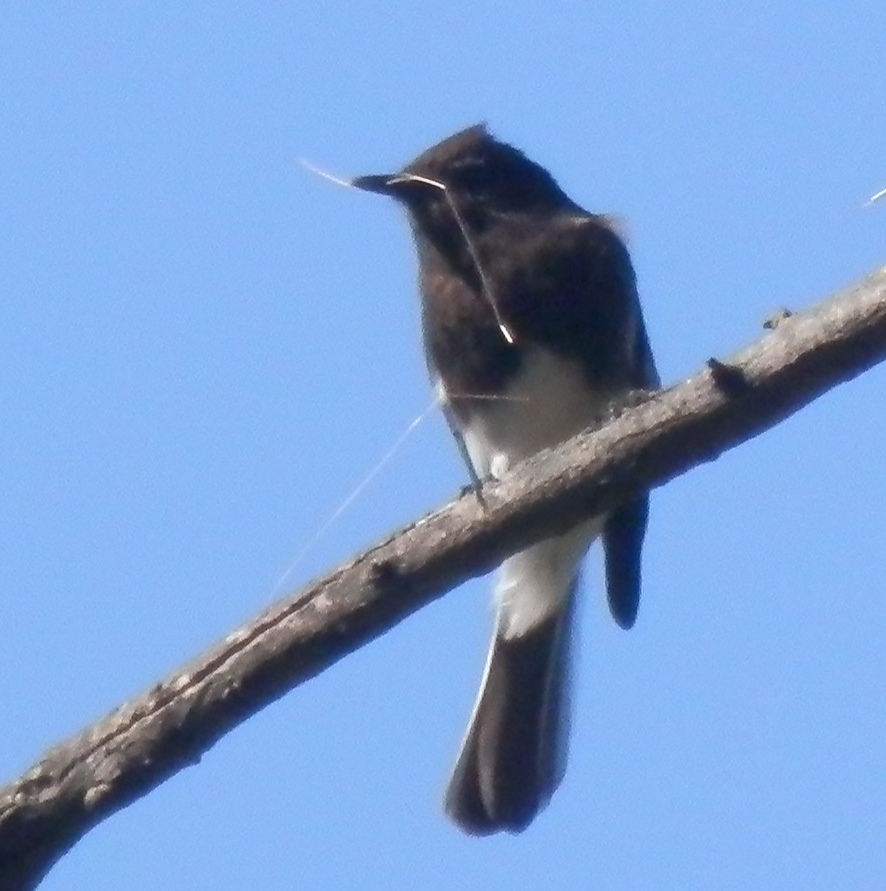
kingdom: Animalia
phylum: Chordata
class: Aves
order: Passeriformes
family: Tyrannidae
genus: Sayornis
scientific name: Sayornis nigricans
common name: Black phoebe
